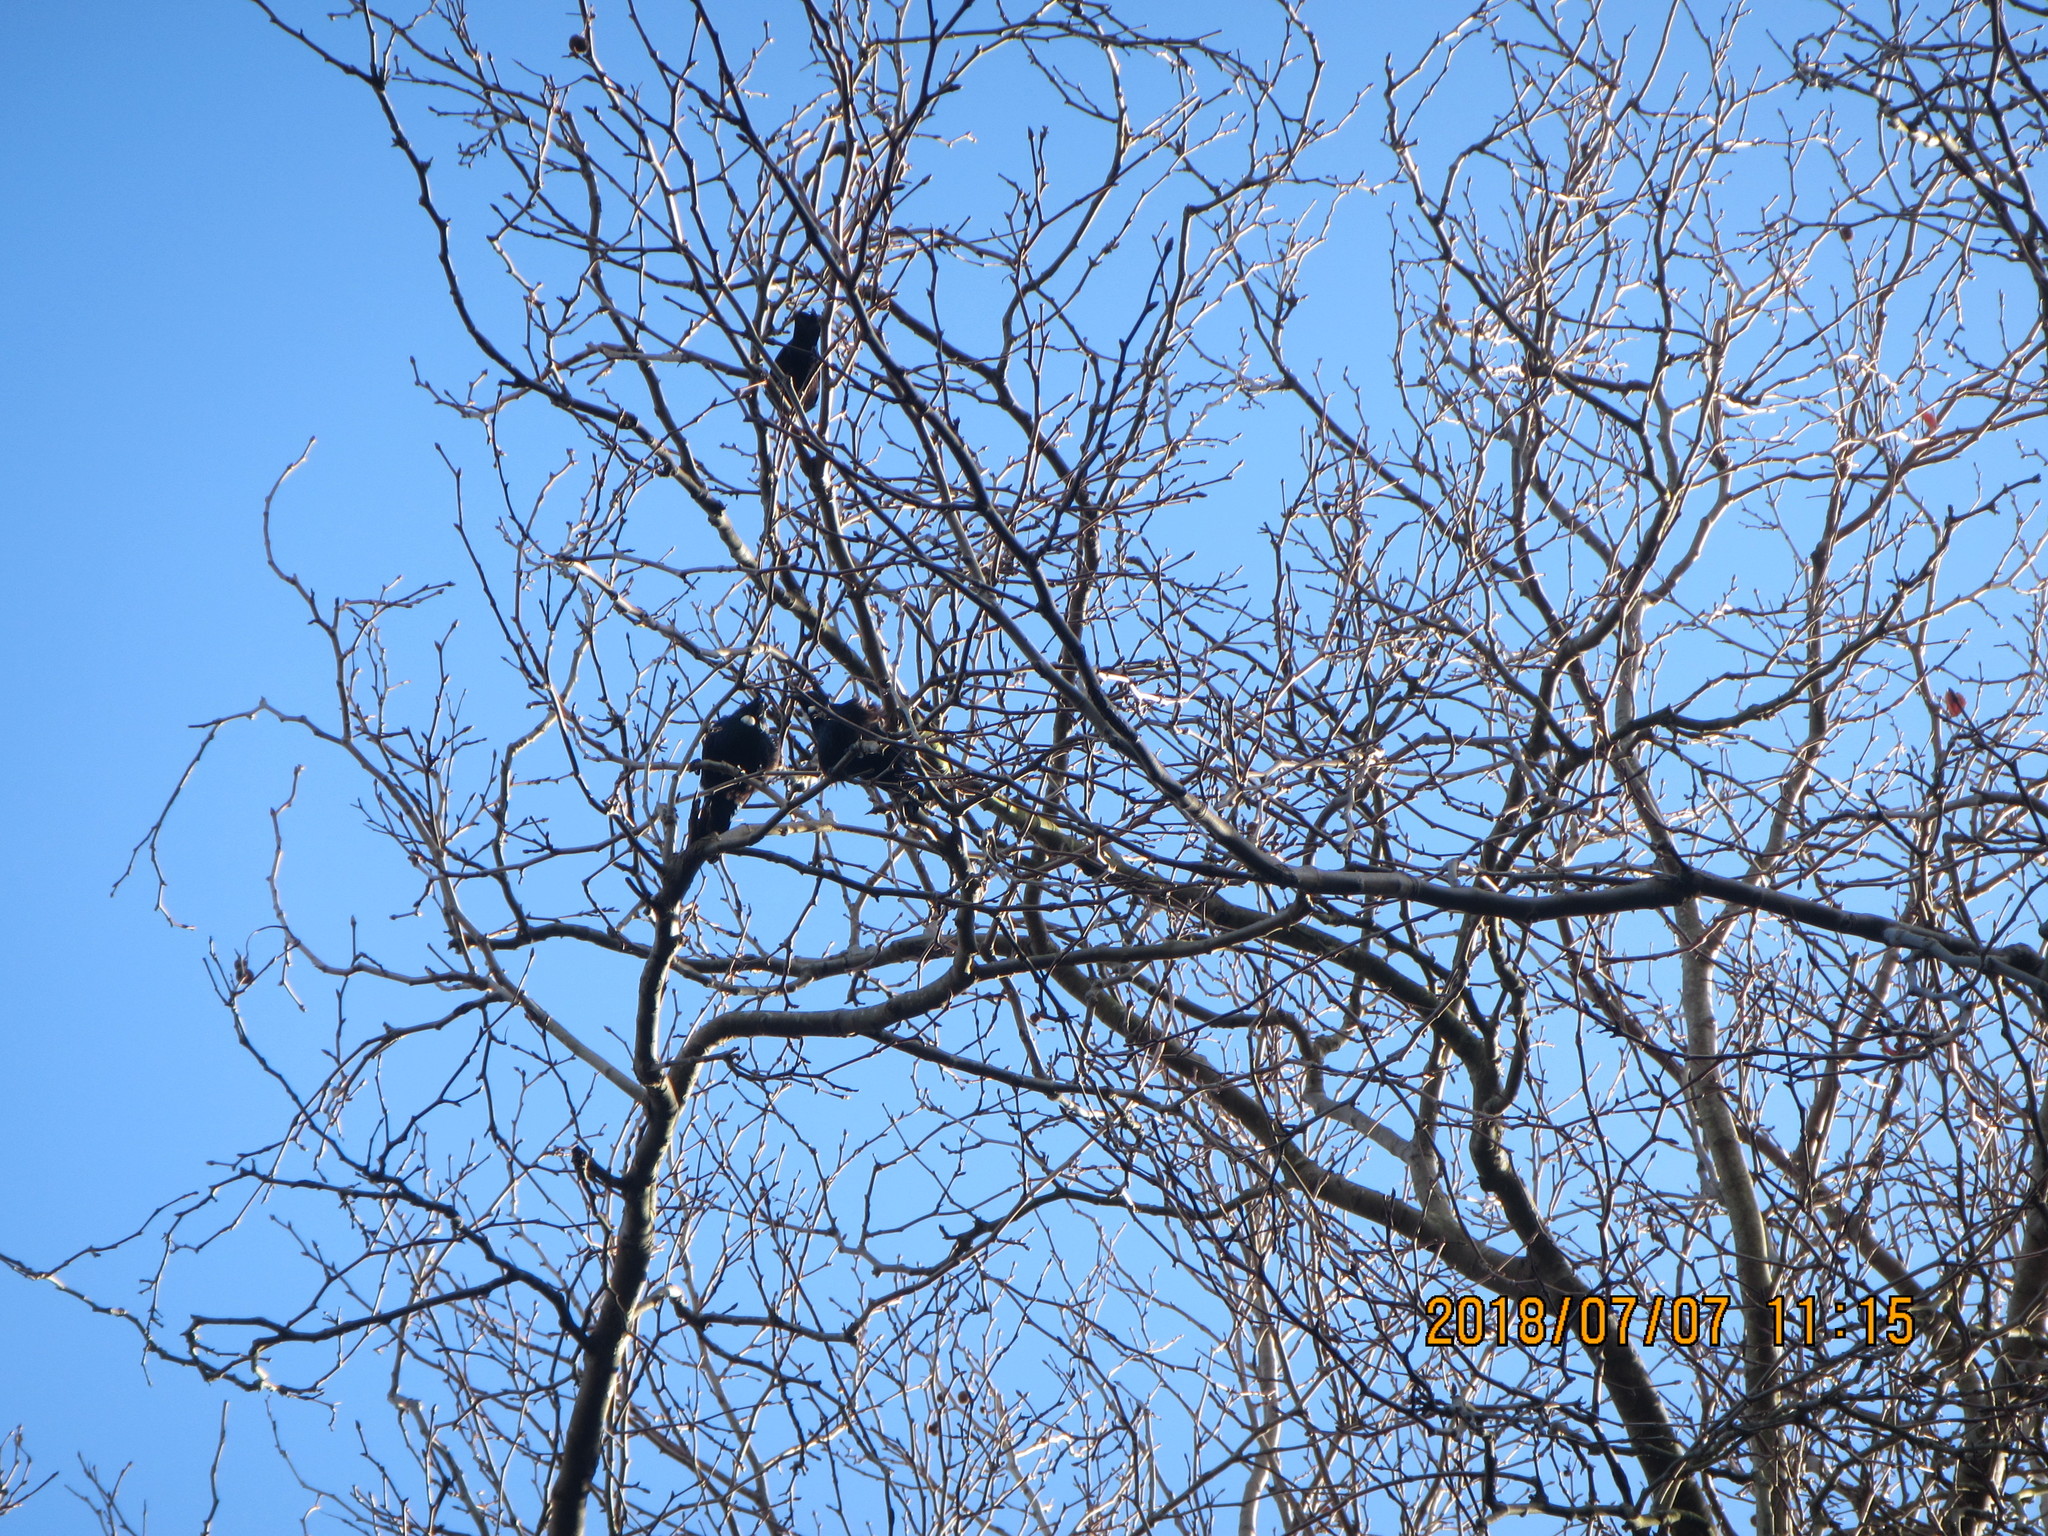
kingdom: Animalia
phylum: Chordata
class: Aves
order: Passeriformes
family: Meliphagidae
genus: Prosthemadera
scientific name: Prosthemadera novaeseelandiae
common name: Tui
